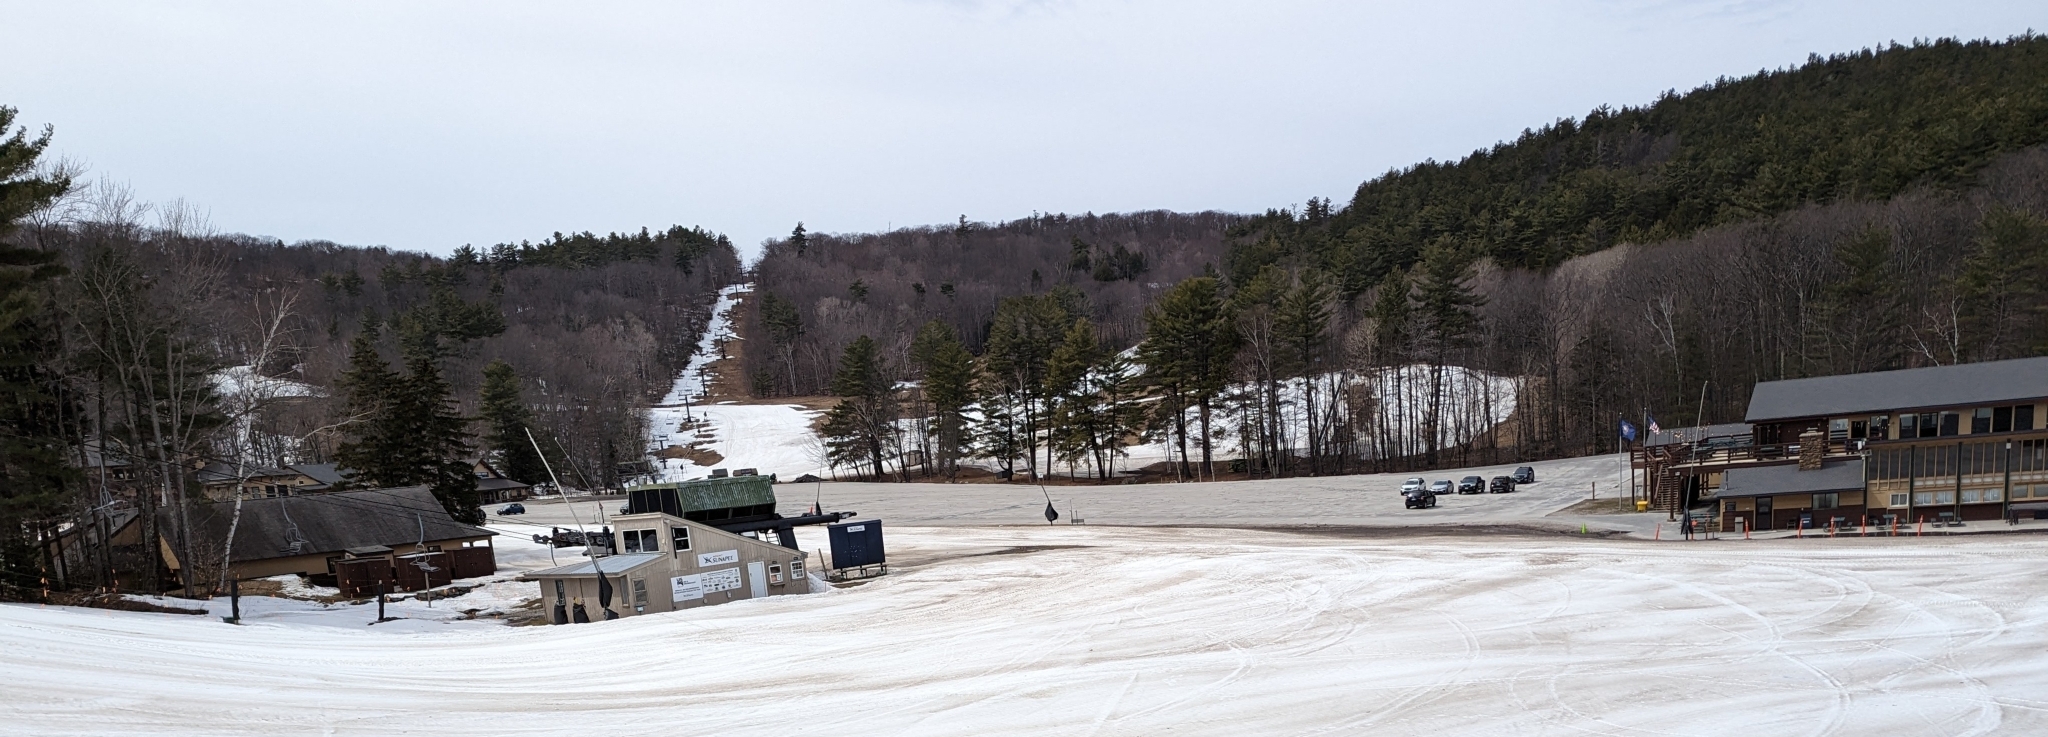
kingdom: Plantae
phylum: Tracheophyta
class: Pinopsida
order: Pinales
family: Pinaceae
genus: Pinus
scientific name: Pinus strobus
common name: Weymouth pine
